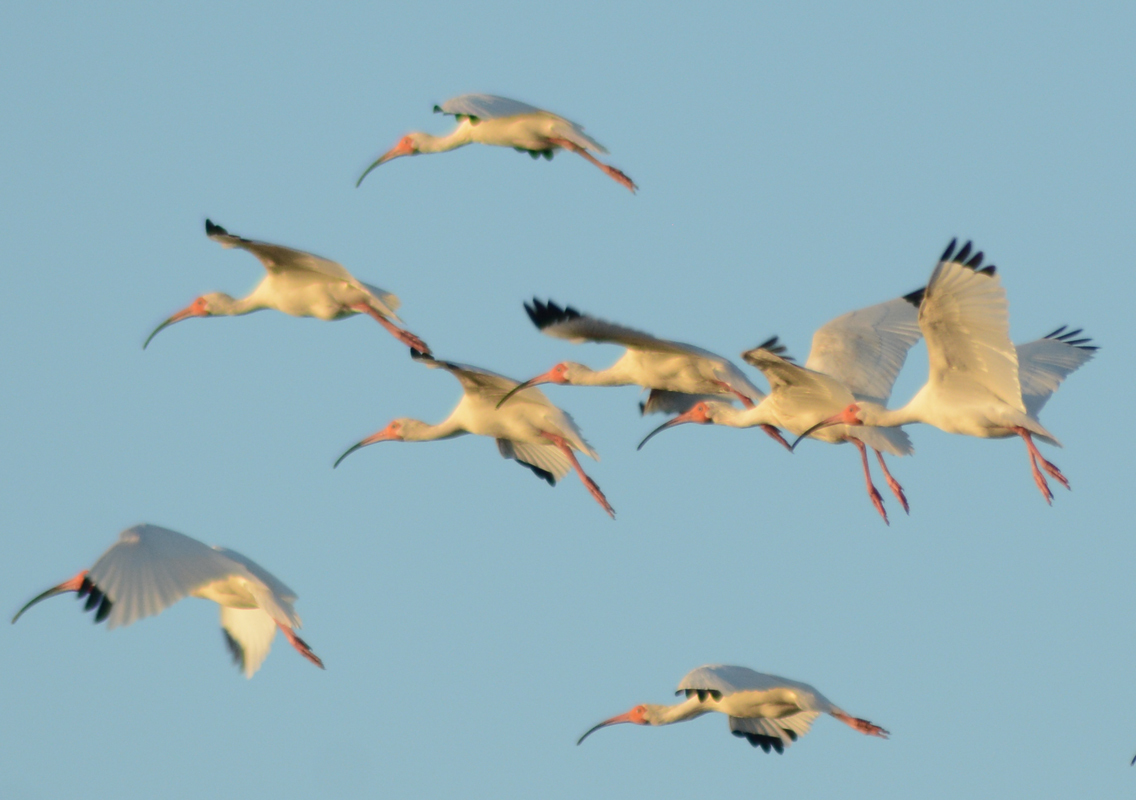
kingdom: Animalia
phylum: Chordata
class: Aves
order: Pelecaniformes
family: Threskiornithidae
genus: Eudocimus
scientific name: Eudocimus albus
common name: White ibis
